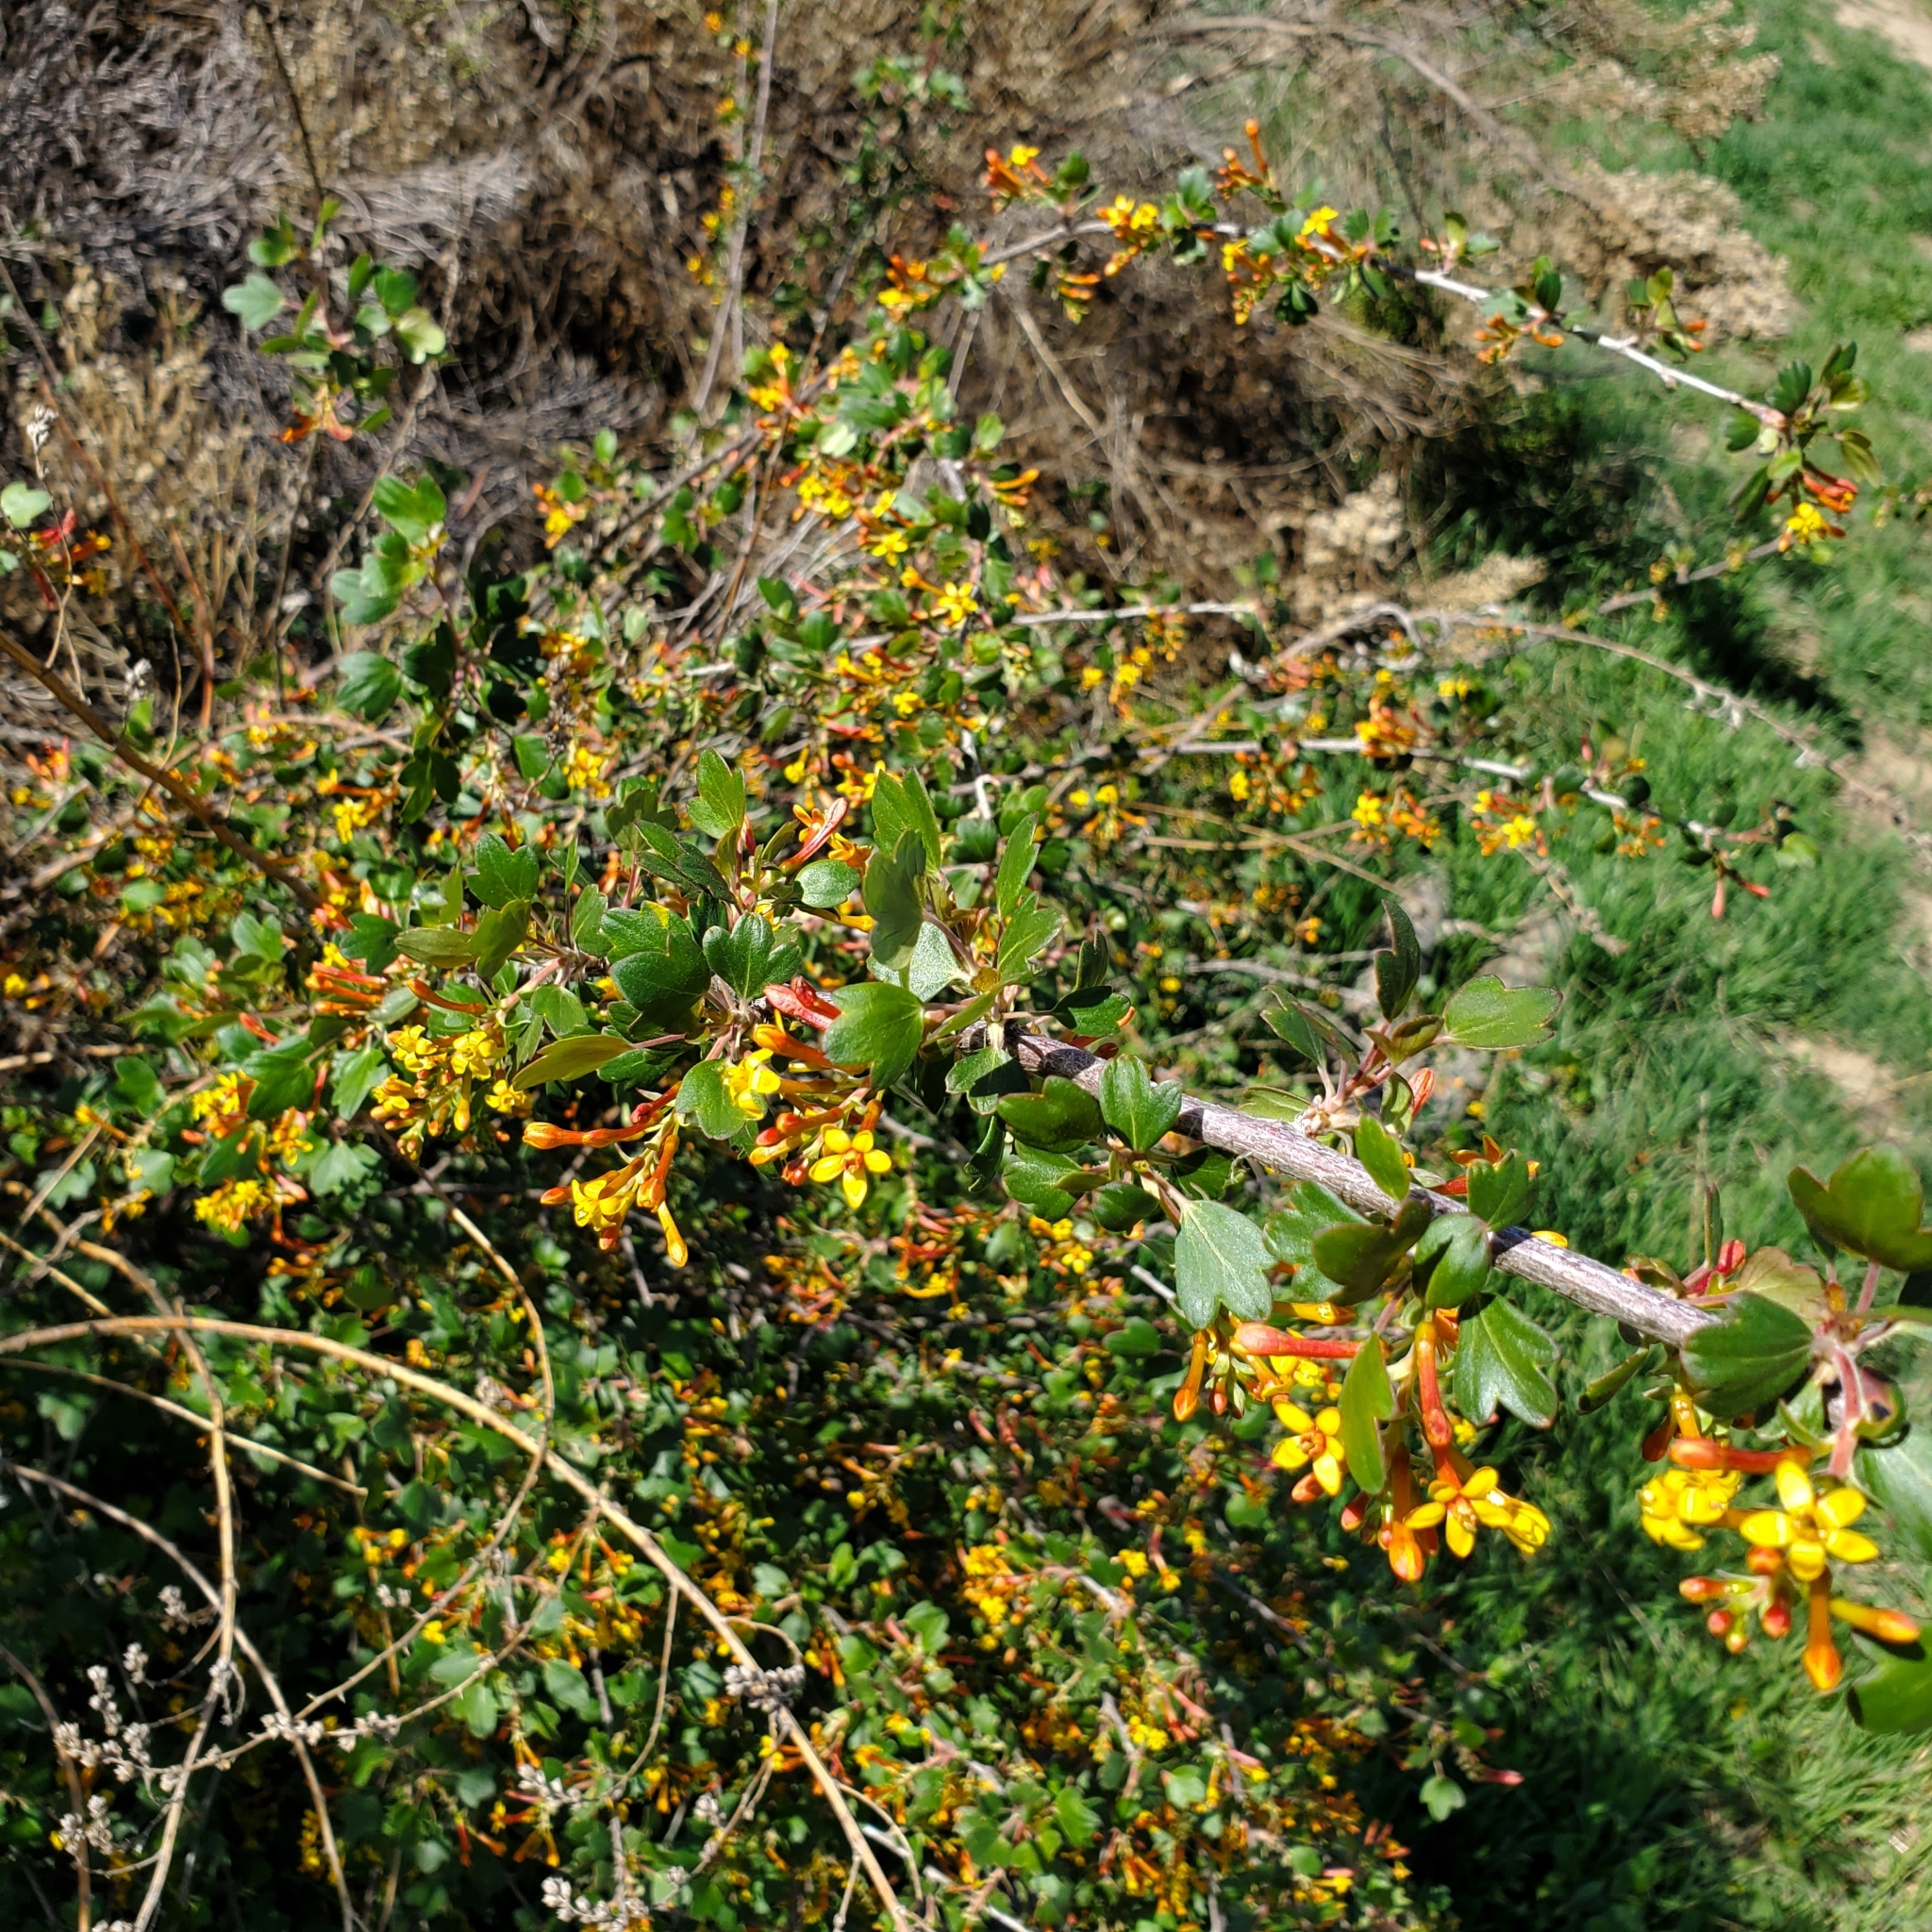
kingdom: Plantae
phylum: Tracheophyta
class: Magnoliopsida
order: Saxifragales
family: Grossulariaceae
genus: Ribes
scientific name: Ribes aureum
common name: Golden currant
